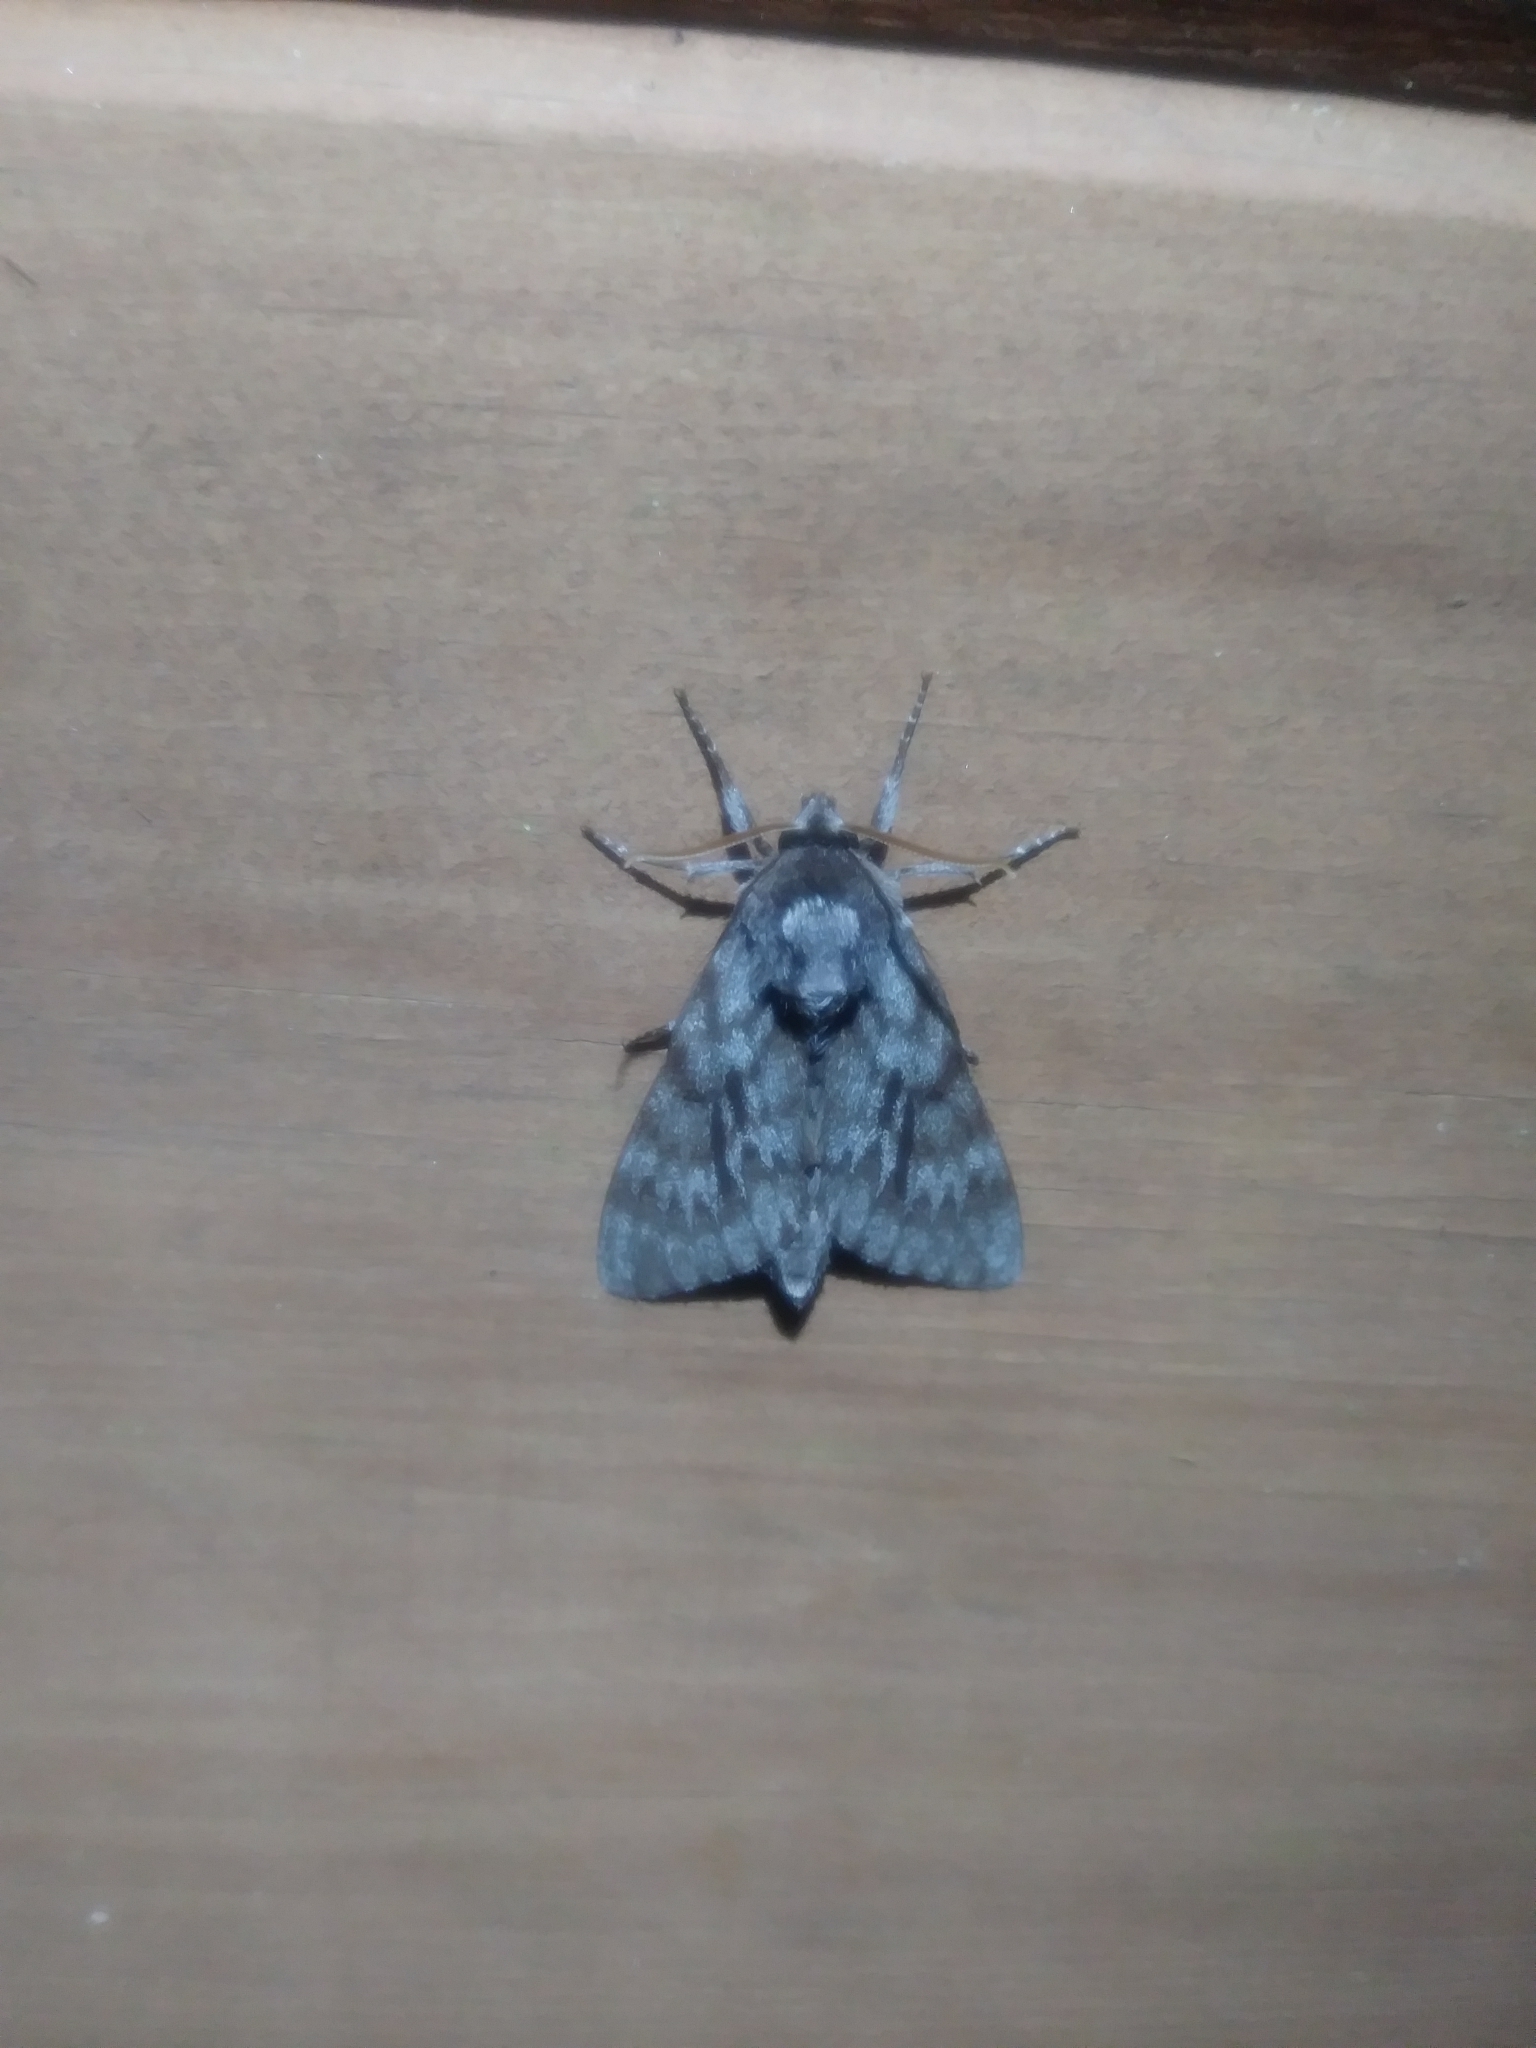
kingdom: Animalia
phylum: Arthropoda
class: Insecta
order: Lepidoptera
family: Sphingidae
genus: Lapara
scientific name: Lapara bombycoides
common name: Northern pine sphinx
